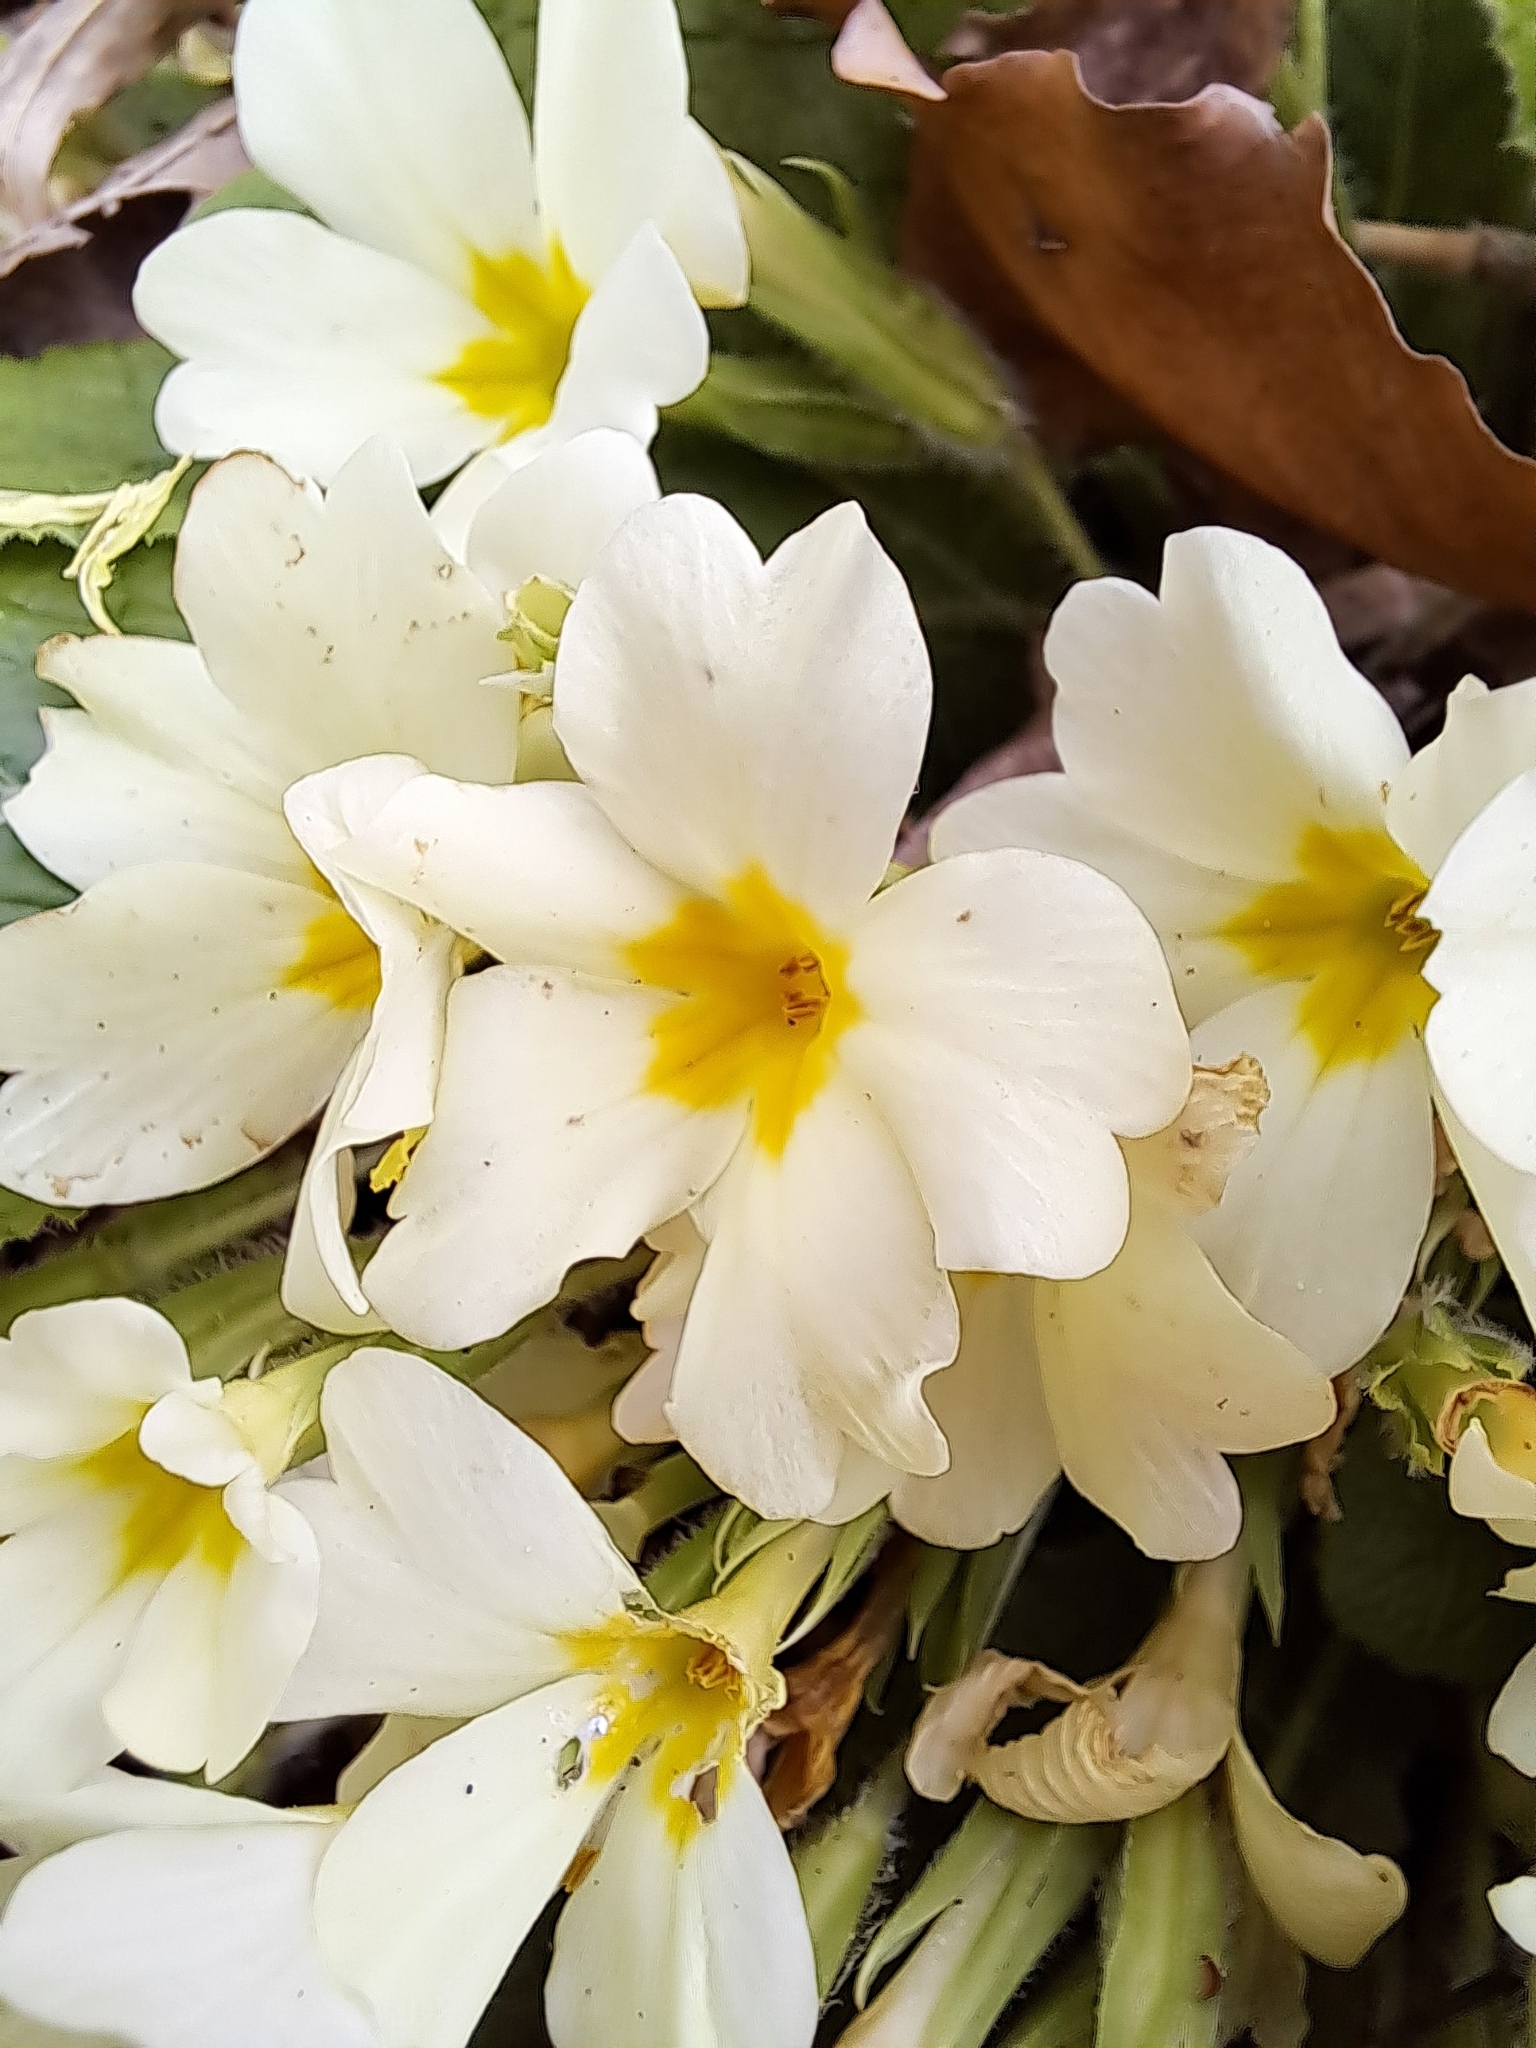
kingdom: Plantae
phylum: Tracheophyta
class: Magnoliopsida
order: Ericales
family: Primulaceae
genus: Primula
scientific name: Primula vulgaris
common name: Primrose
